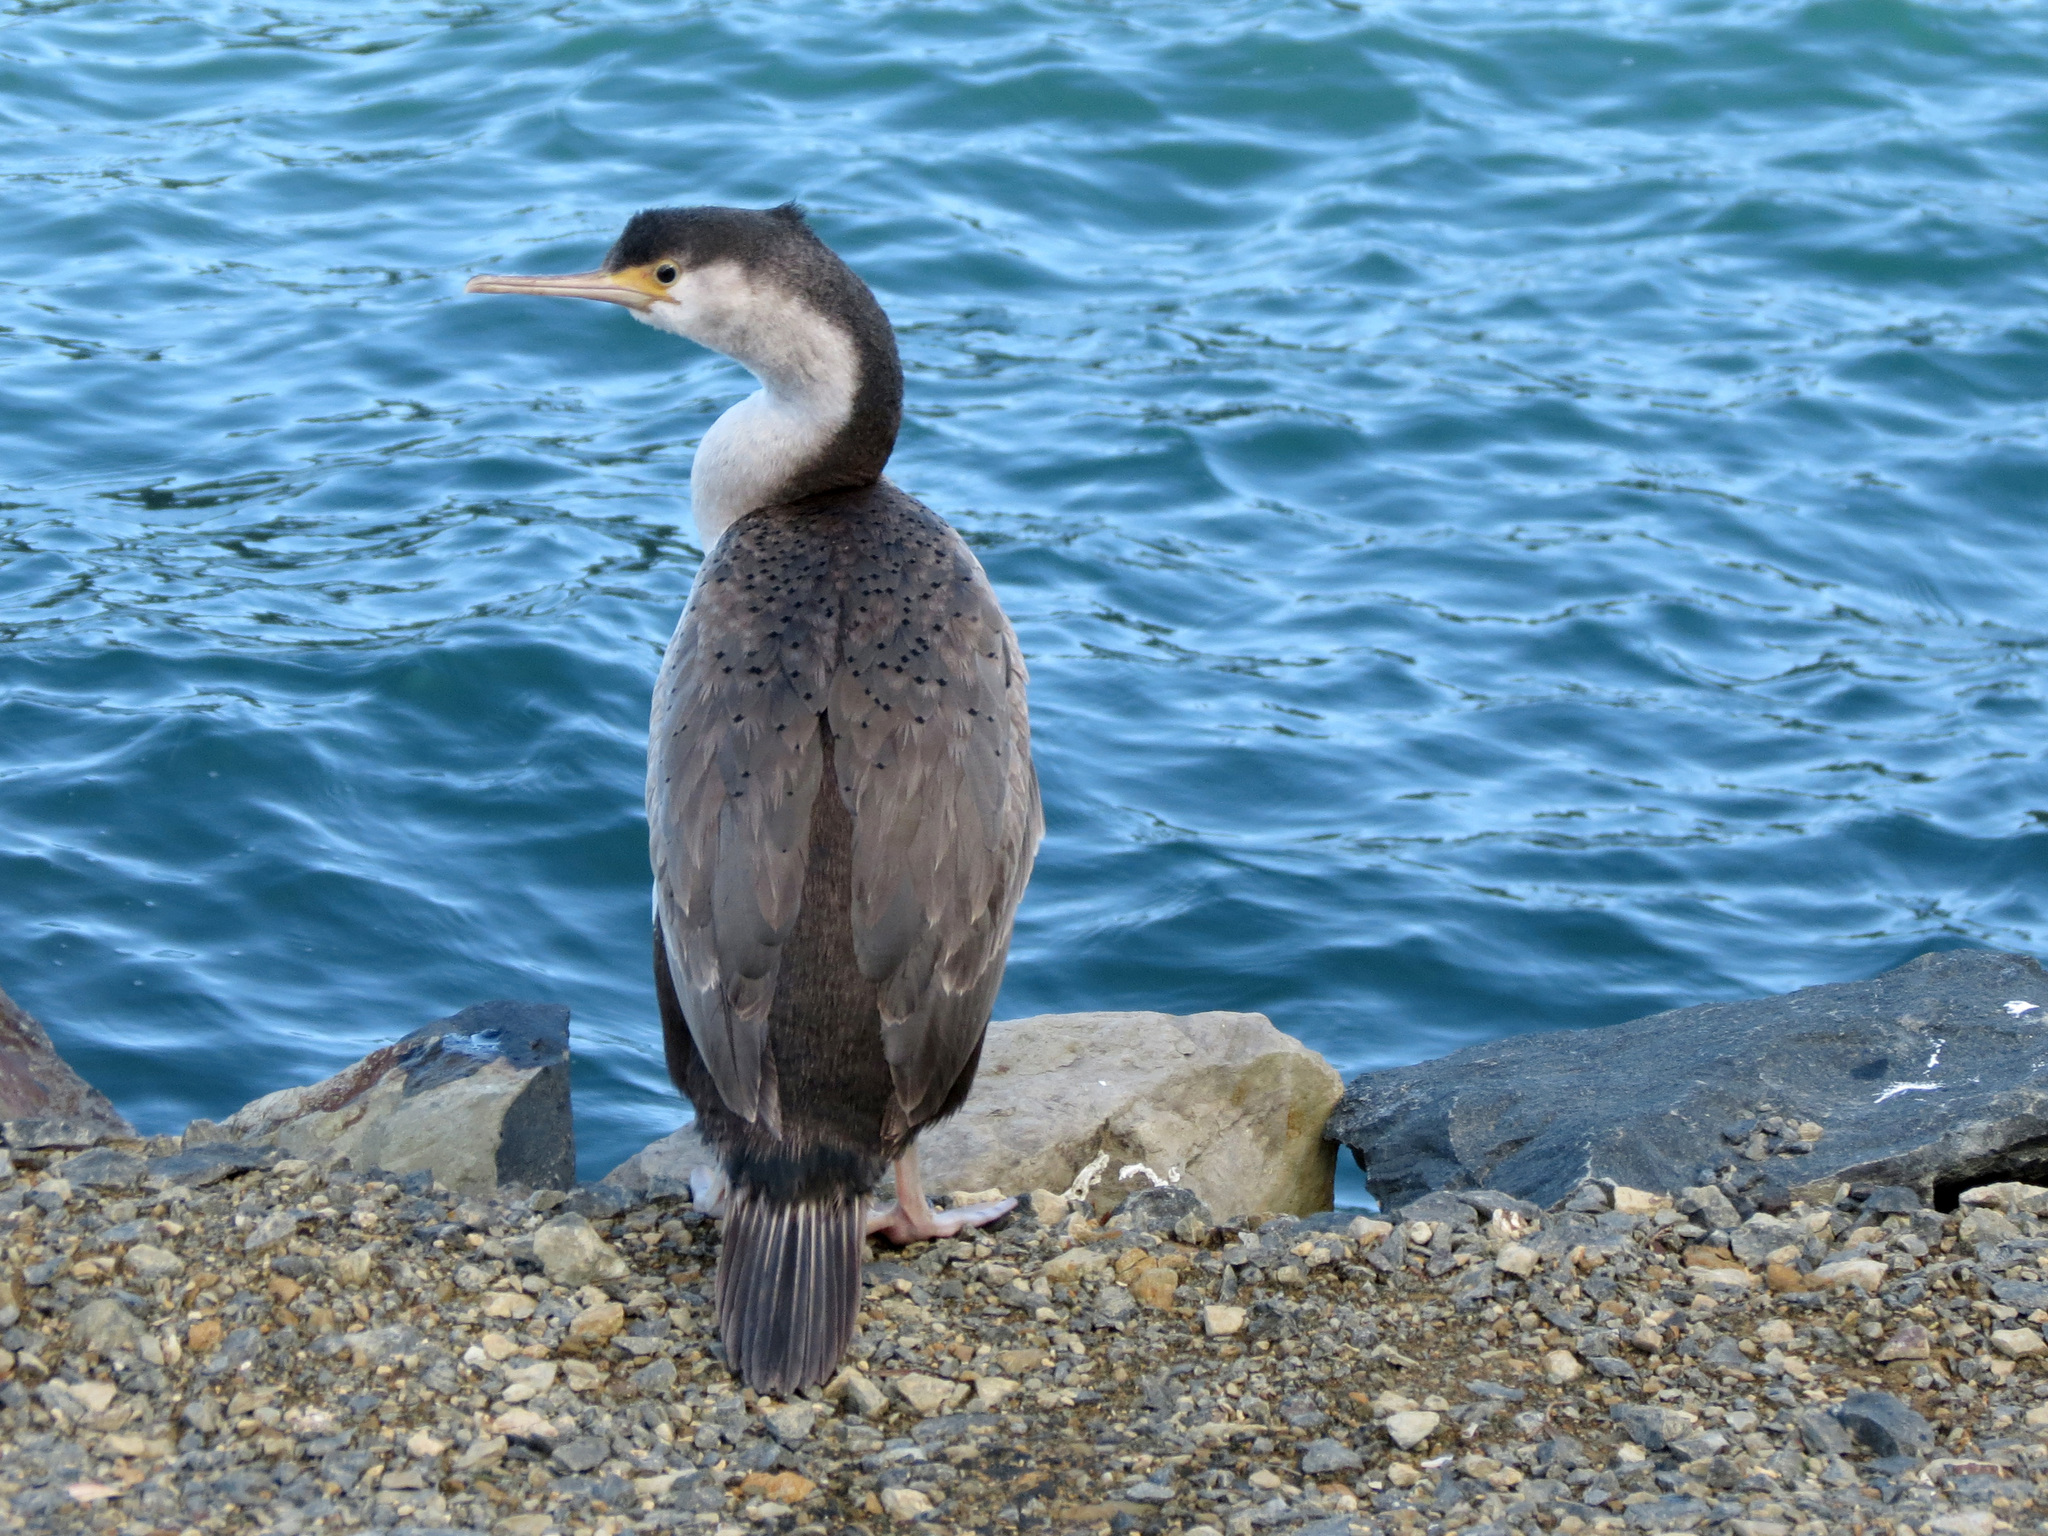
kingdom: Animalia
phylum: Chordata
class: Aves
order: Suliformes
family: Phalacrocoracidae
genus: Phalacrocorax
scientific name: Phalacrocorax punctatus
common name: Spotted shag
